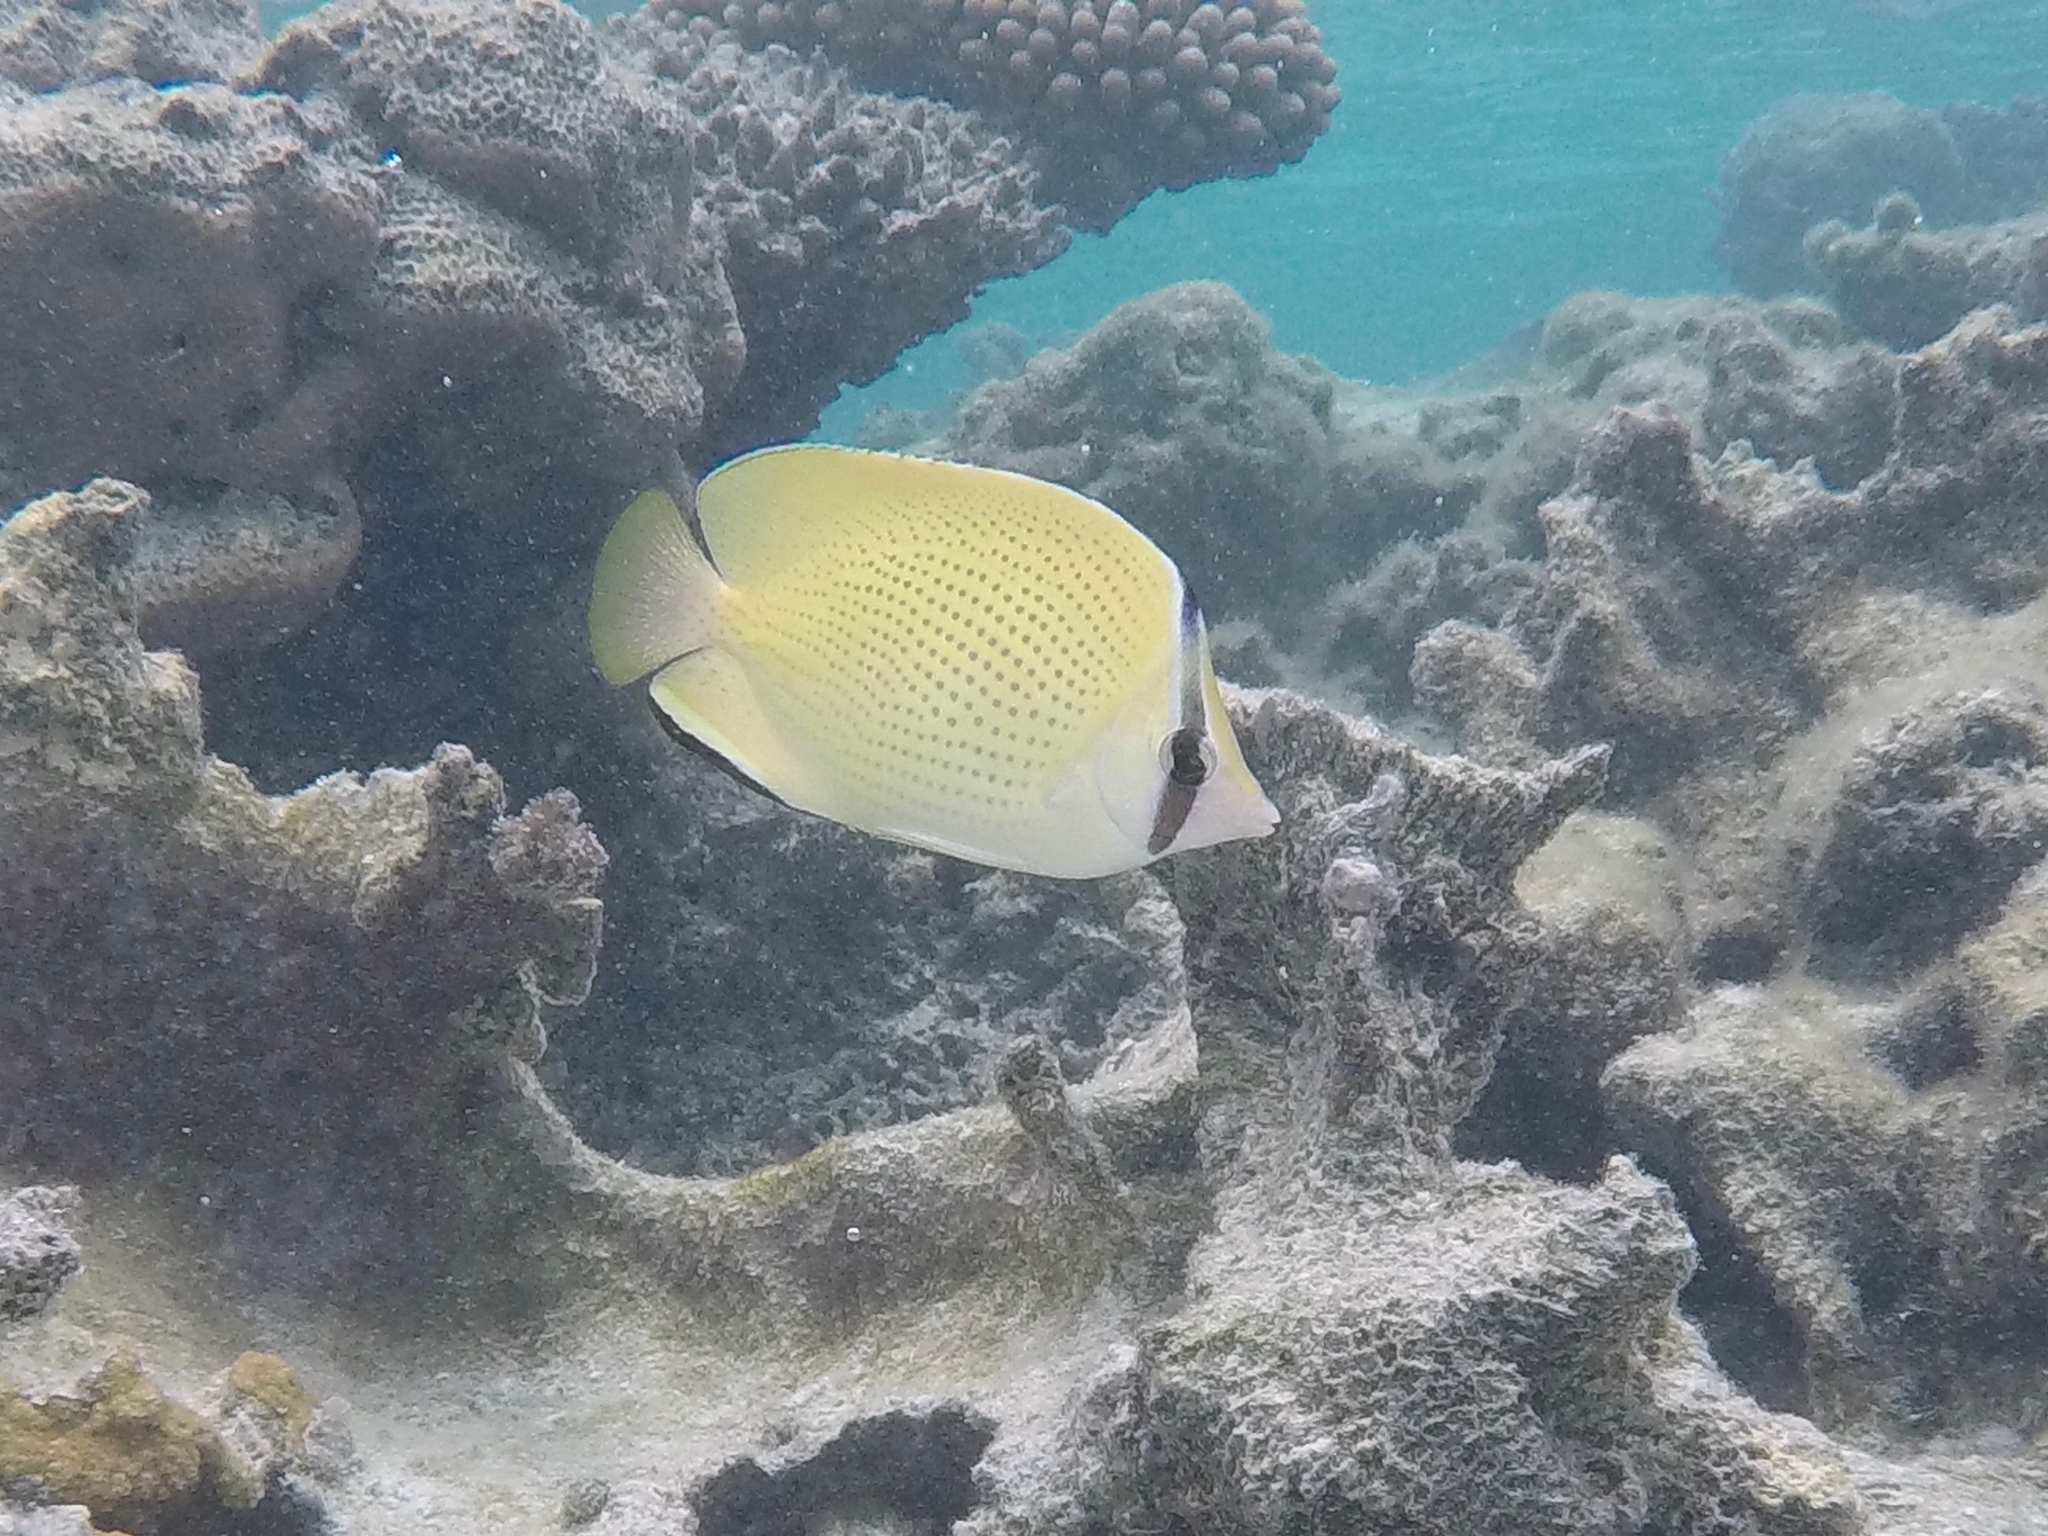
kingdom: Animalia
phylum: Chordata
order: Perciformes
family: Chaetodontidae
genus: Chaetodon
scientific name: Chaetodon citrinellus
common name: Speckled butterflyfish
